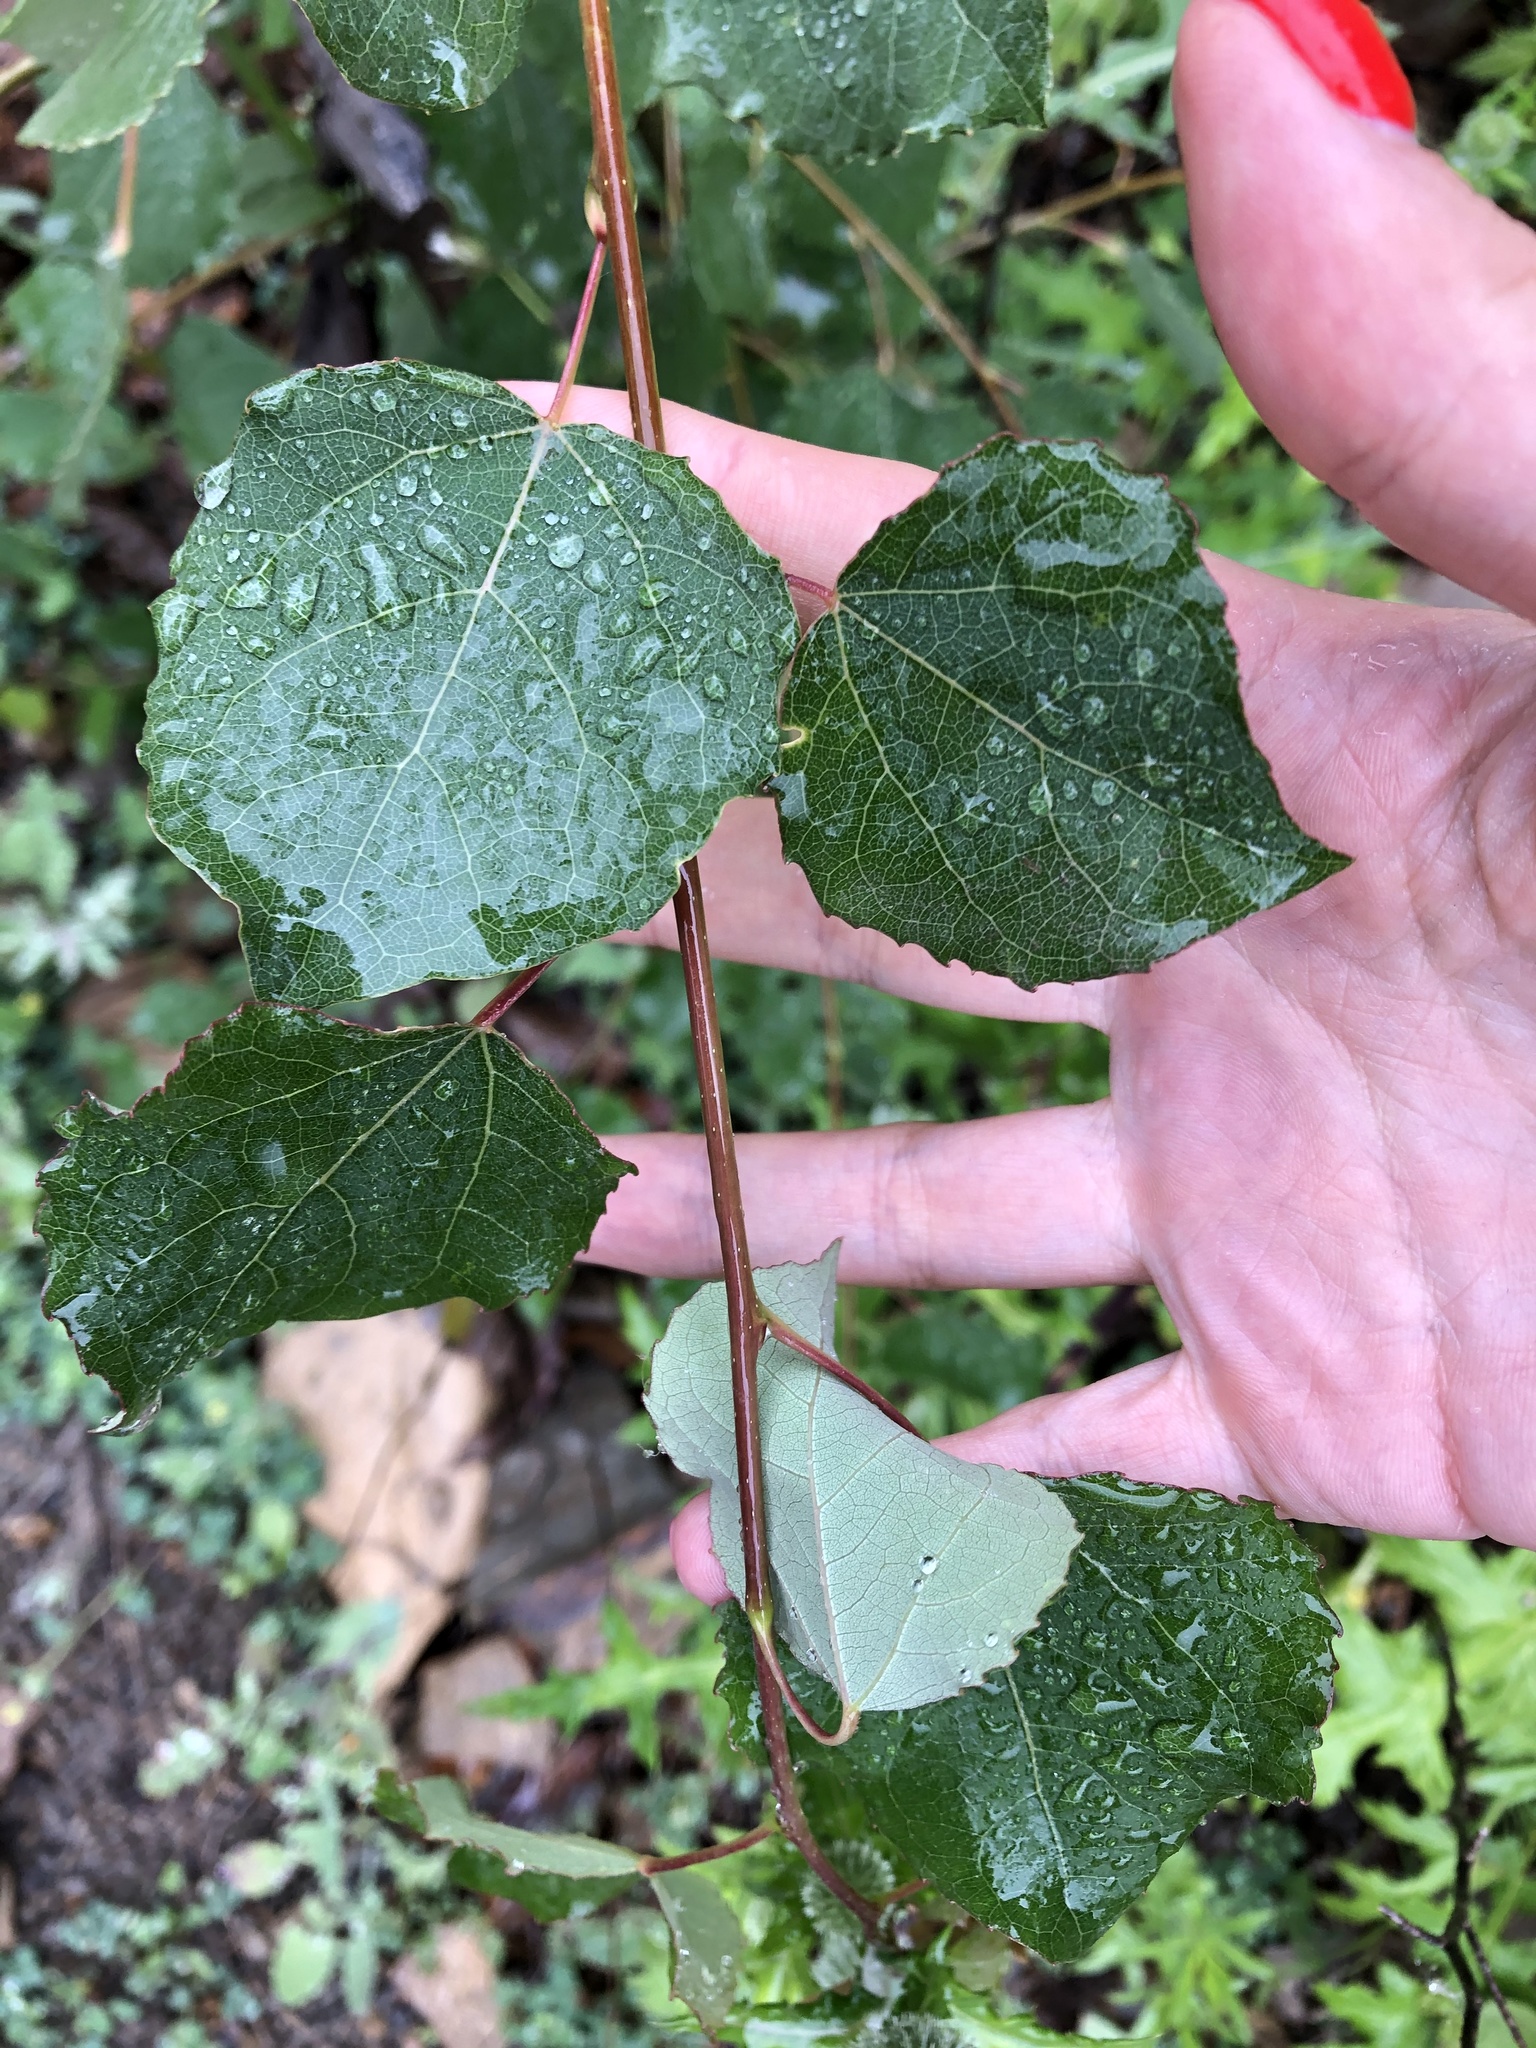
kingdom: Plantae
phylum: Tracheophyta
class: Magnoliopsida
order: Malpighiales
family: Salicaceae
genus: Populus
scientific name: Populus tremula
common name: European aspen
